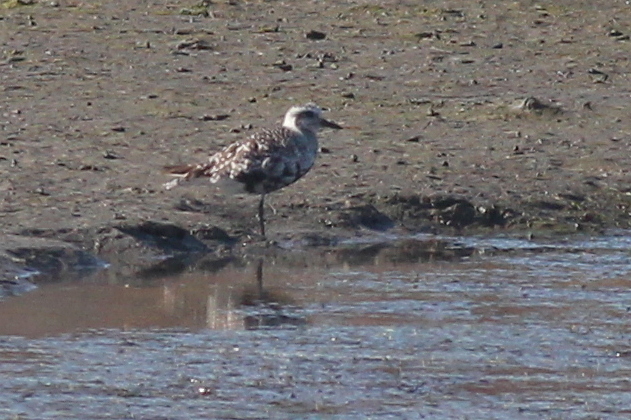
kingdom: Animalia
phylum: Chordata
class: Aves
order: Charadriiformes
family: Charadriidae
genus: Pluvialis
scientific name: Pluvialis squatarola
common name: Grey plover
